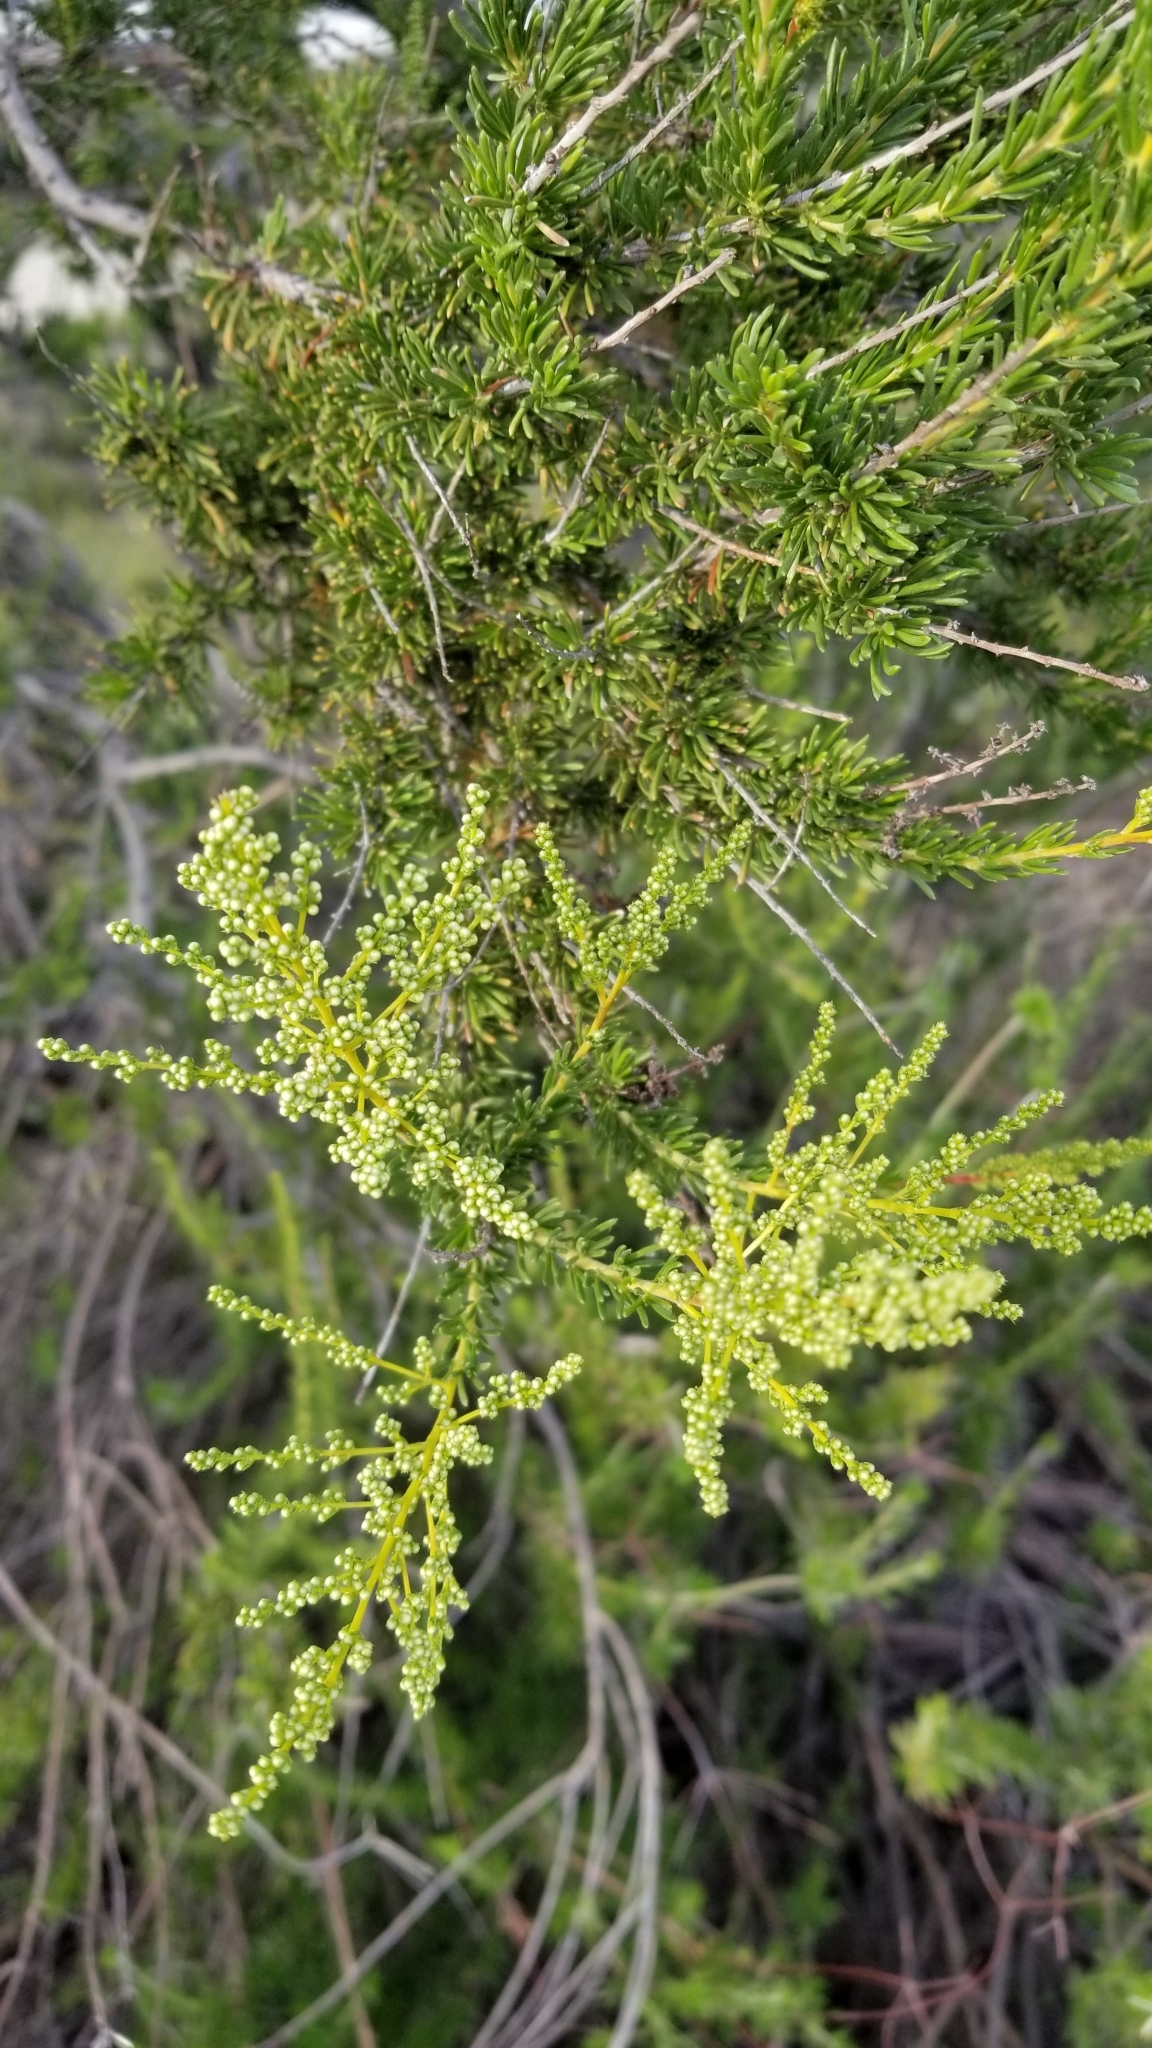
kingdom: Plantae
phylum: Tracheophyta
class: Magnoliopsida
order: Rosales
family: Rosaceae
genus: Adenostoma
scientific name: Adenostoma fasciculatum
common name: Chamise
